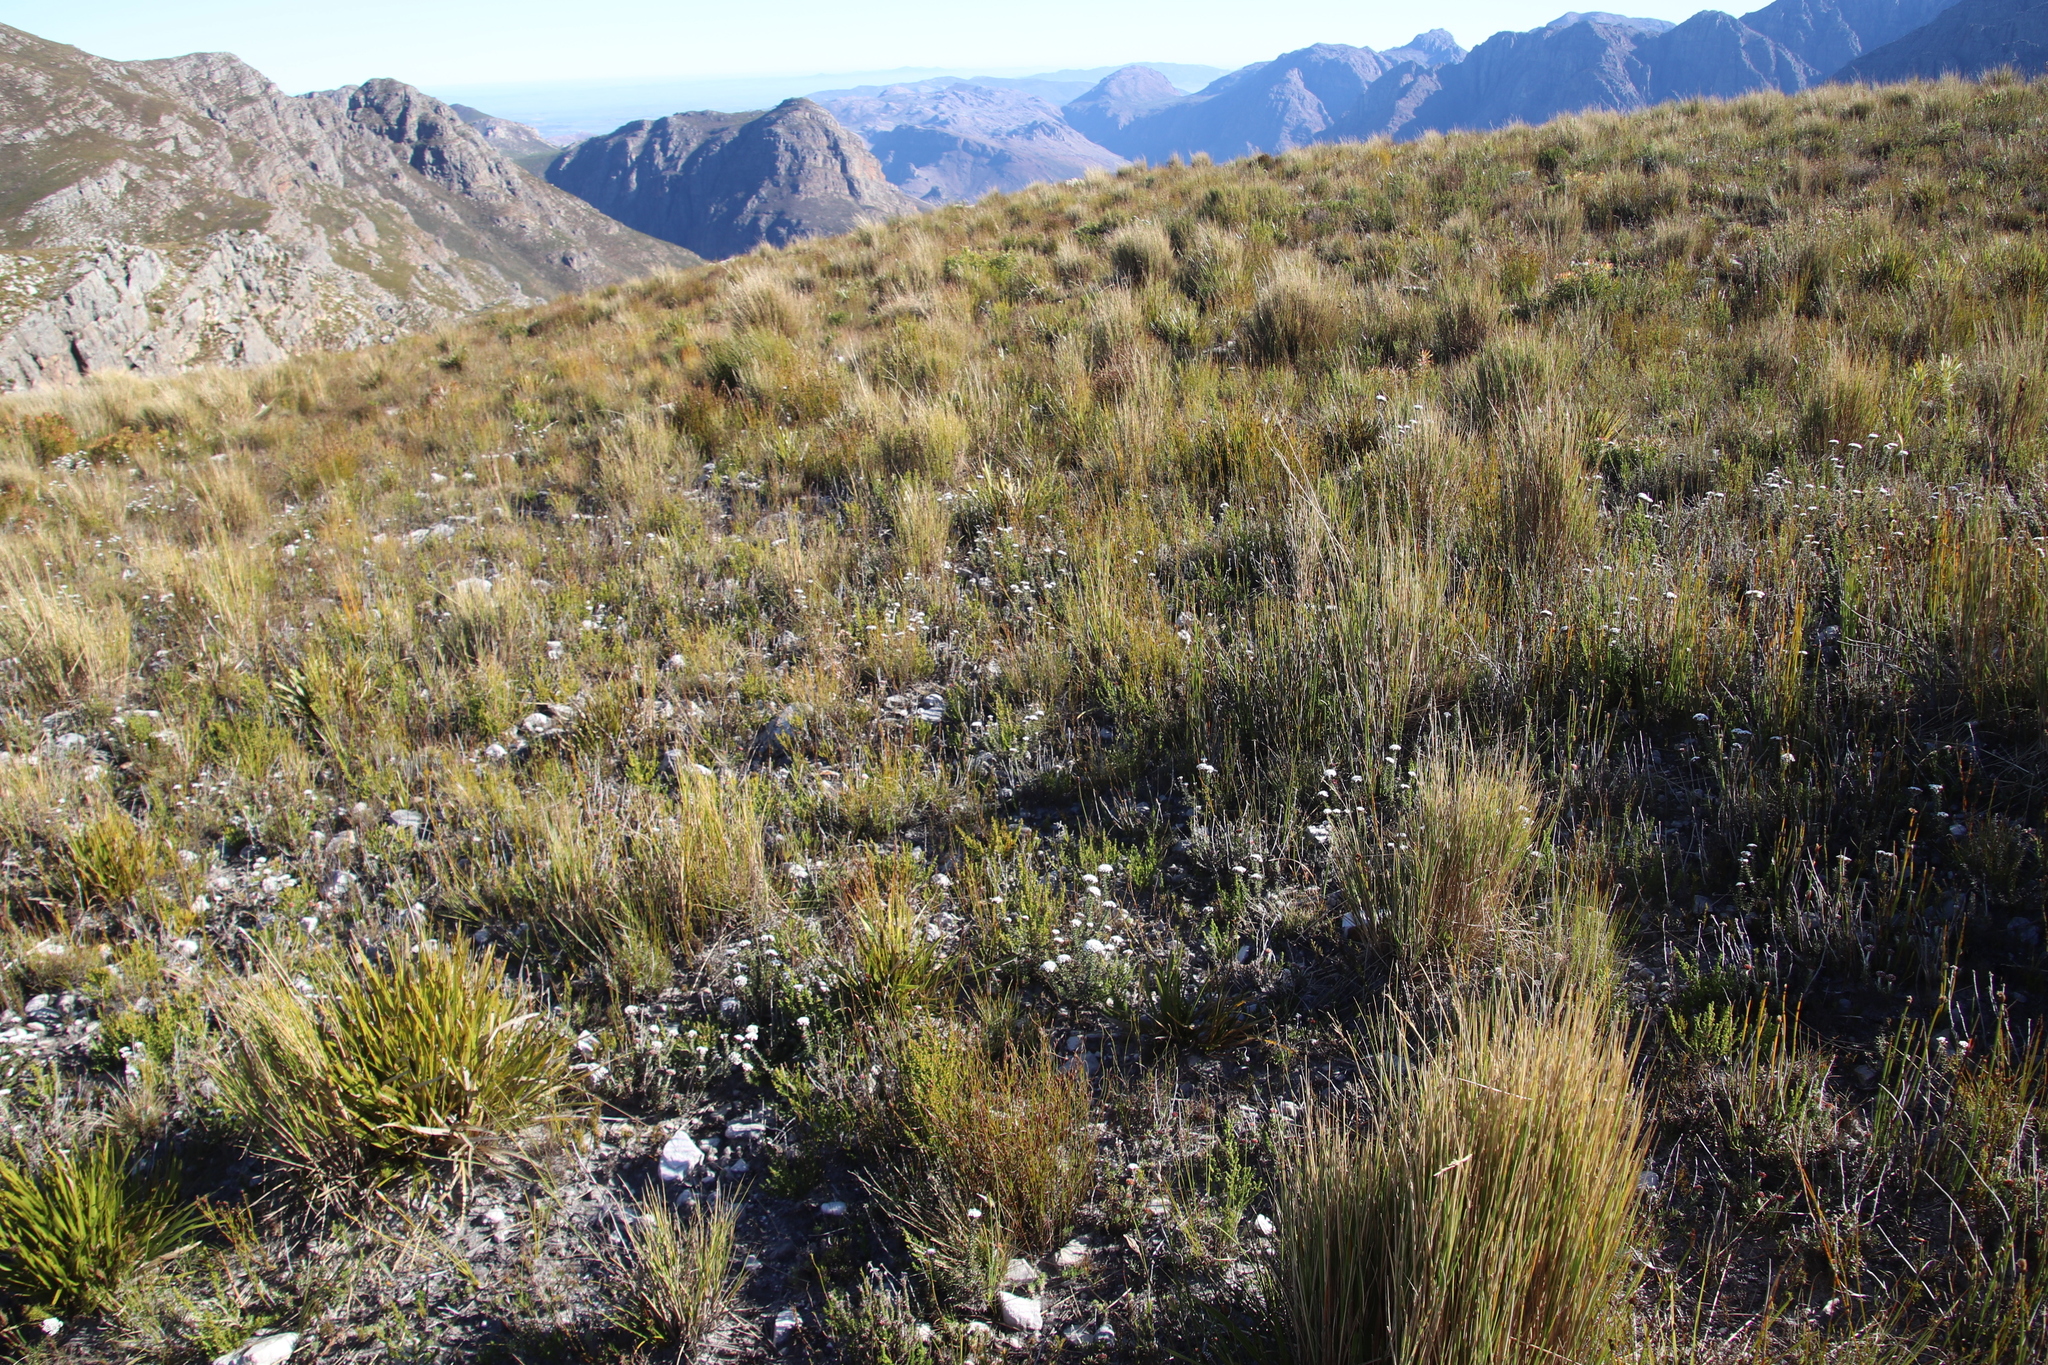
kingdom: Plantae
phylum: Tracheophyta
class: Magnoliopsida
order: Asterales
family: Asteraceae
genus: Metalasia
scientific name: Metalasia montana
